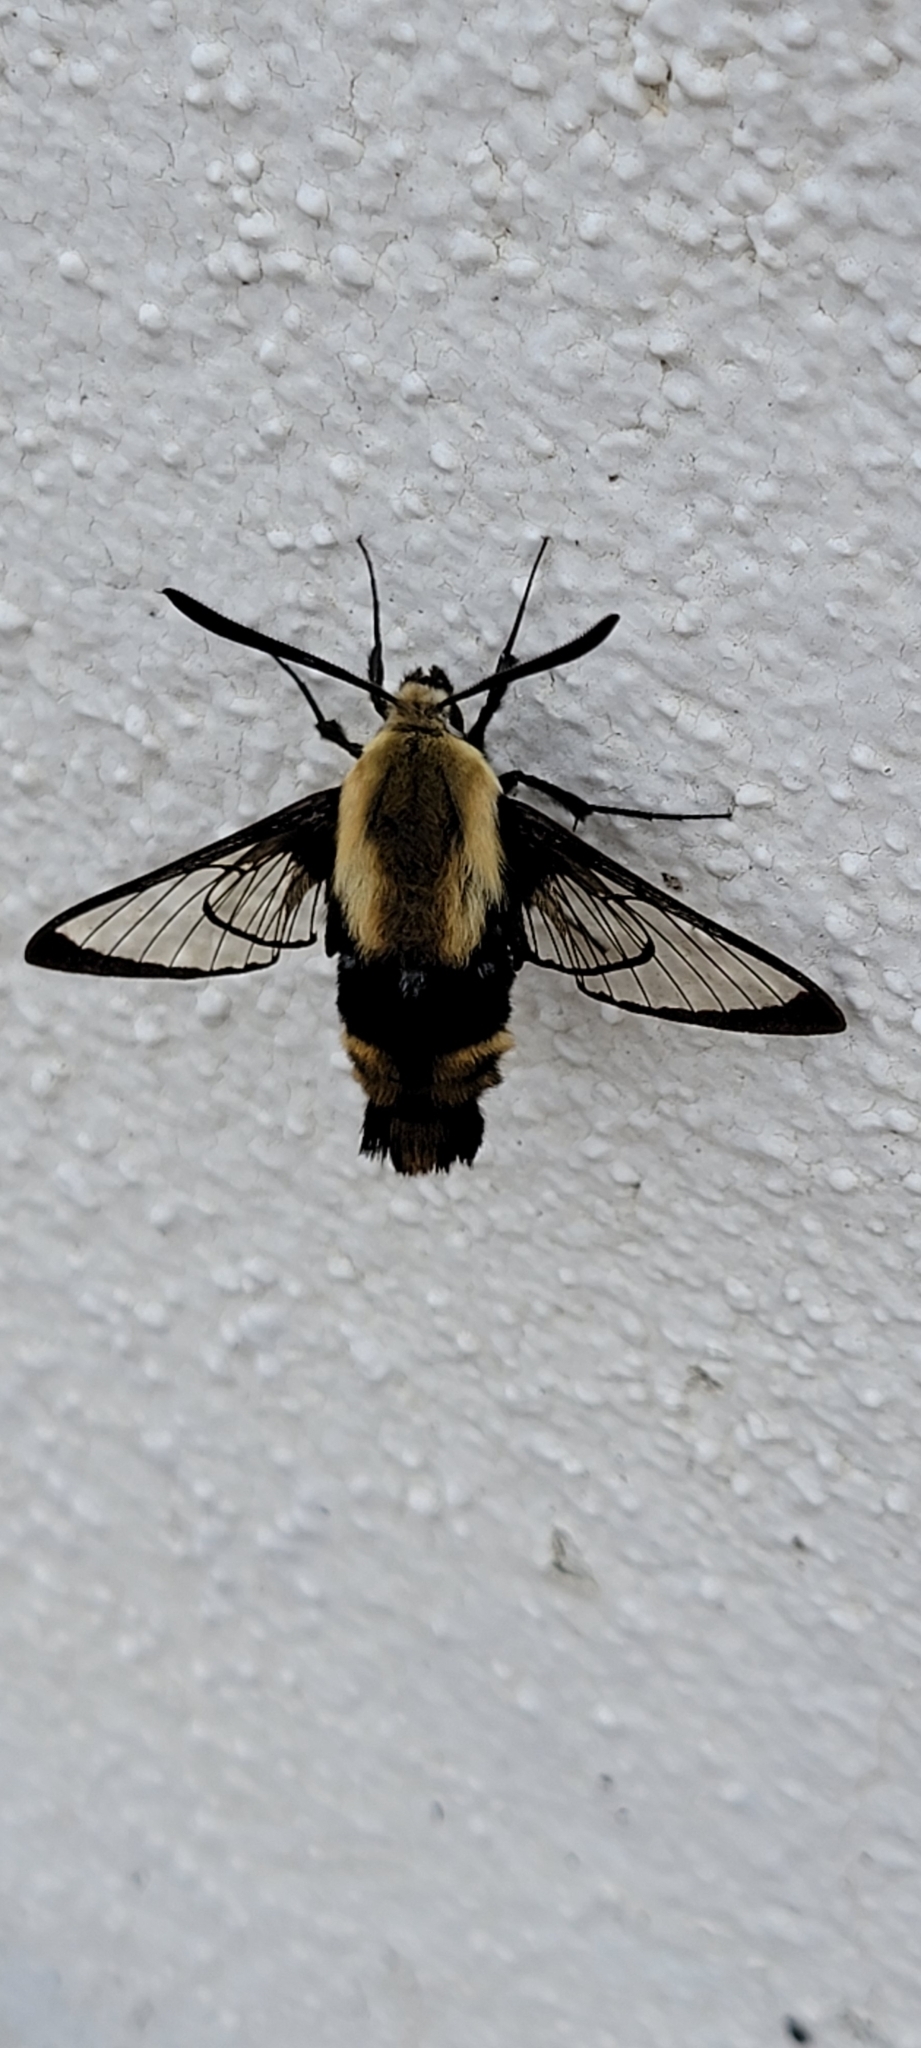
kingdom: Animalia
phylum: Arthropoda
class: Insecta
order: Lepidoptera
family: Sphingidae
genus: Hemaris
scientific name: Hemaris diffinis
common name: Bumblebee moth
